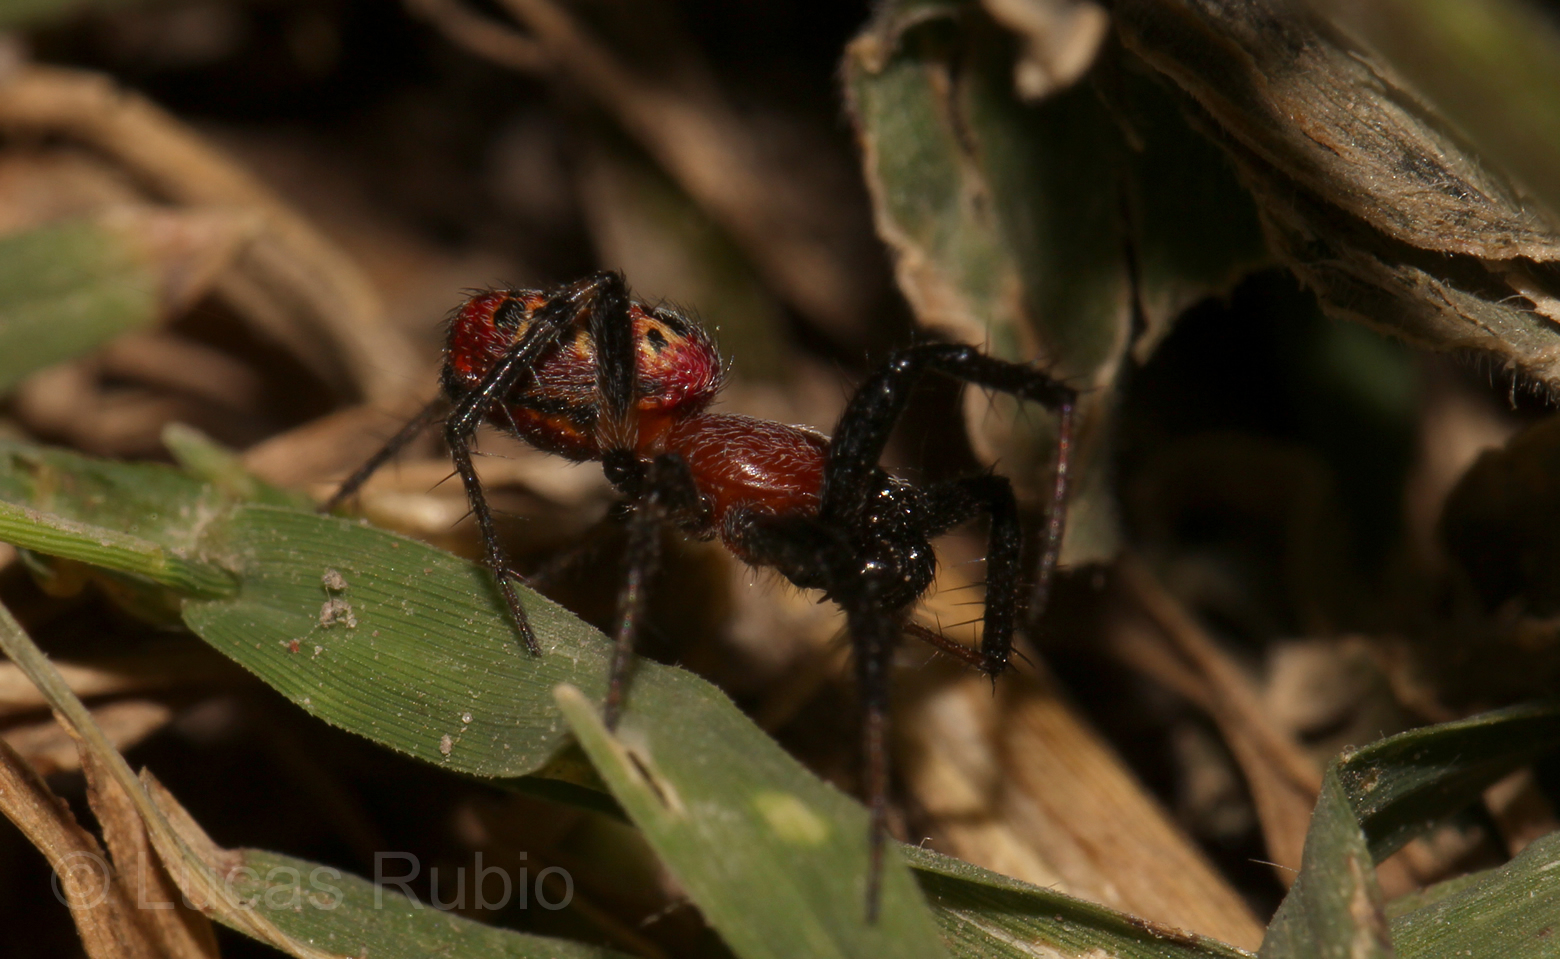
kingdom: Animalia
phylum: Arthropoda
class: Arachnida
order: Araneae
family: Araneidae
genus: Alpaida
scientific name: Alpaida versicolor
